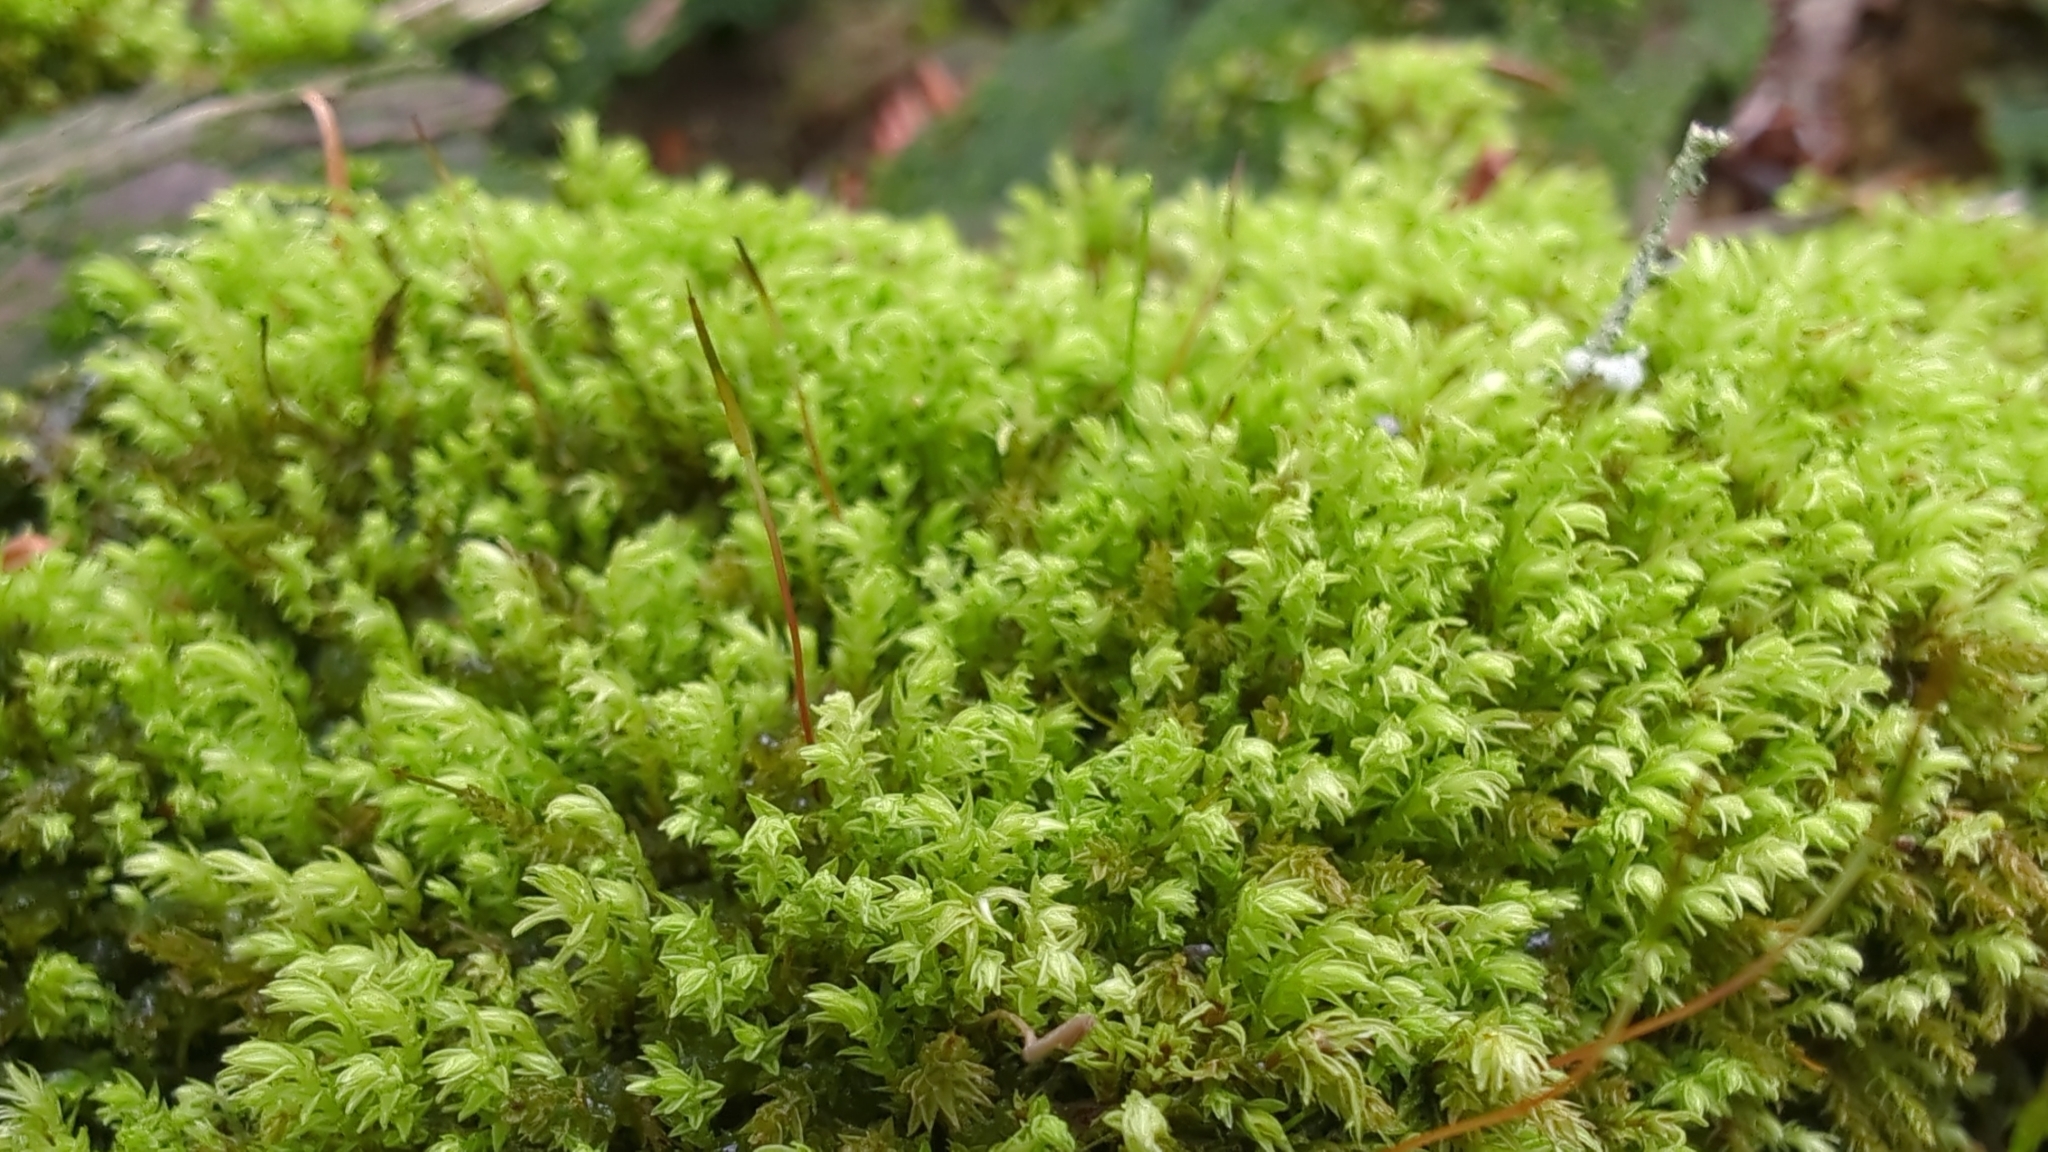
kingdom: Plantae
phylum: Bryophyta
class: Bryopsida
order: Aulacomniales
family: Aulacomniaceae
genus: Aulacomnium
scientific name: Aulacomnium androgynum
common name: Little groove moss
